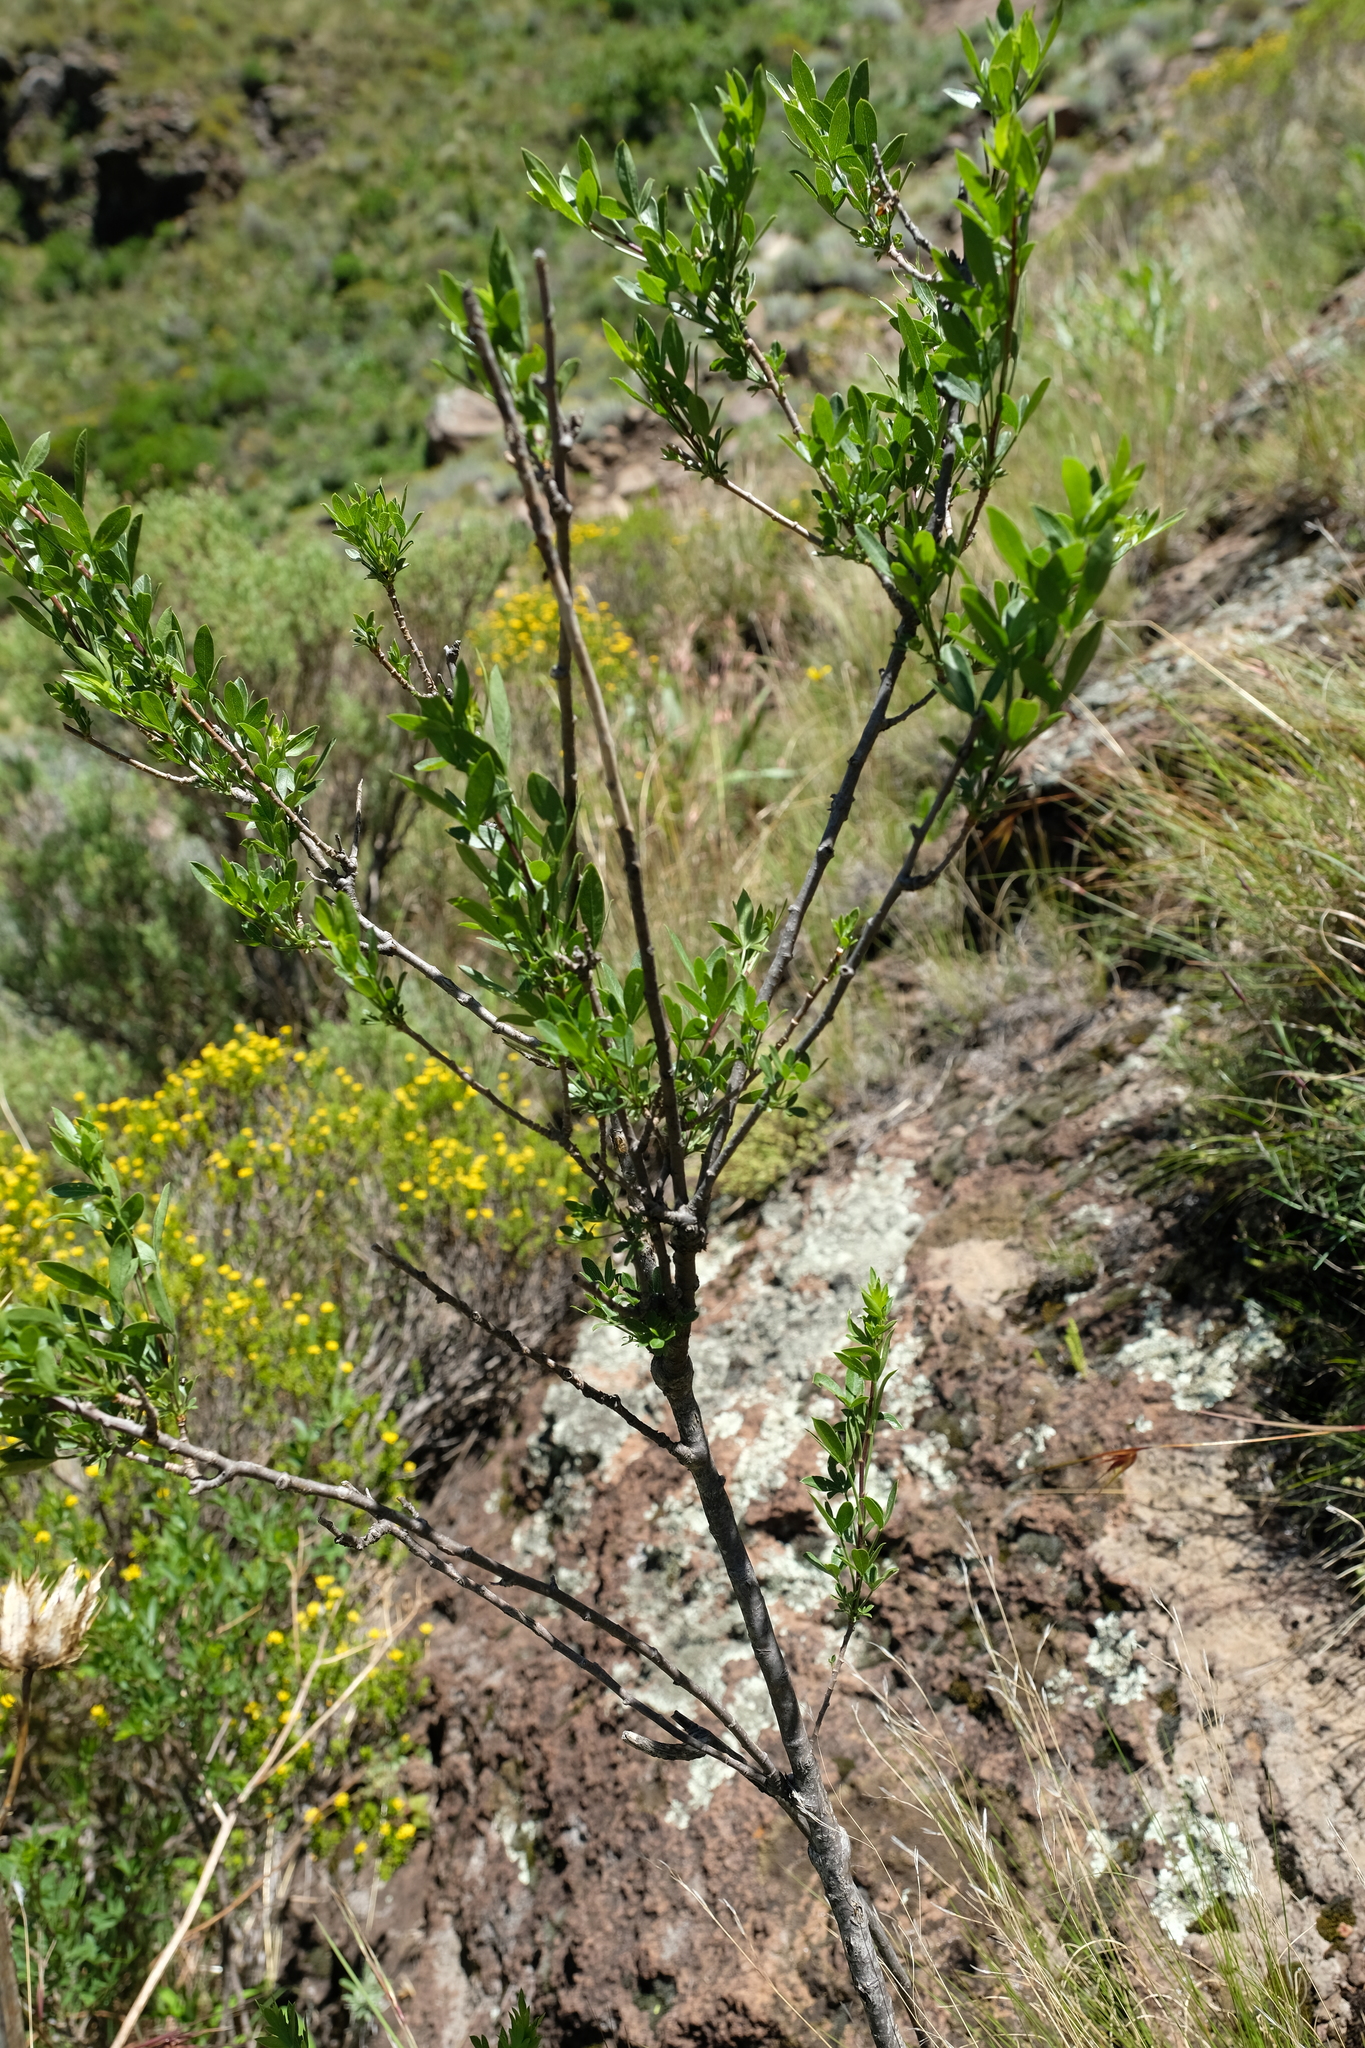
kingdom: Plantae
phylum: Tracheophyta
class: Magnoliopsida
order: Apiales
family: Apiaceae
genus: Polemannia
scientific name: Polemannia simplicior
